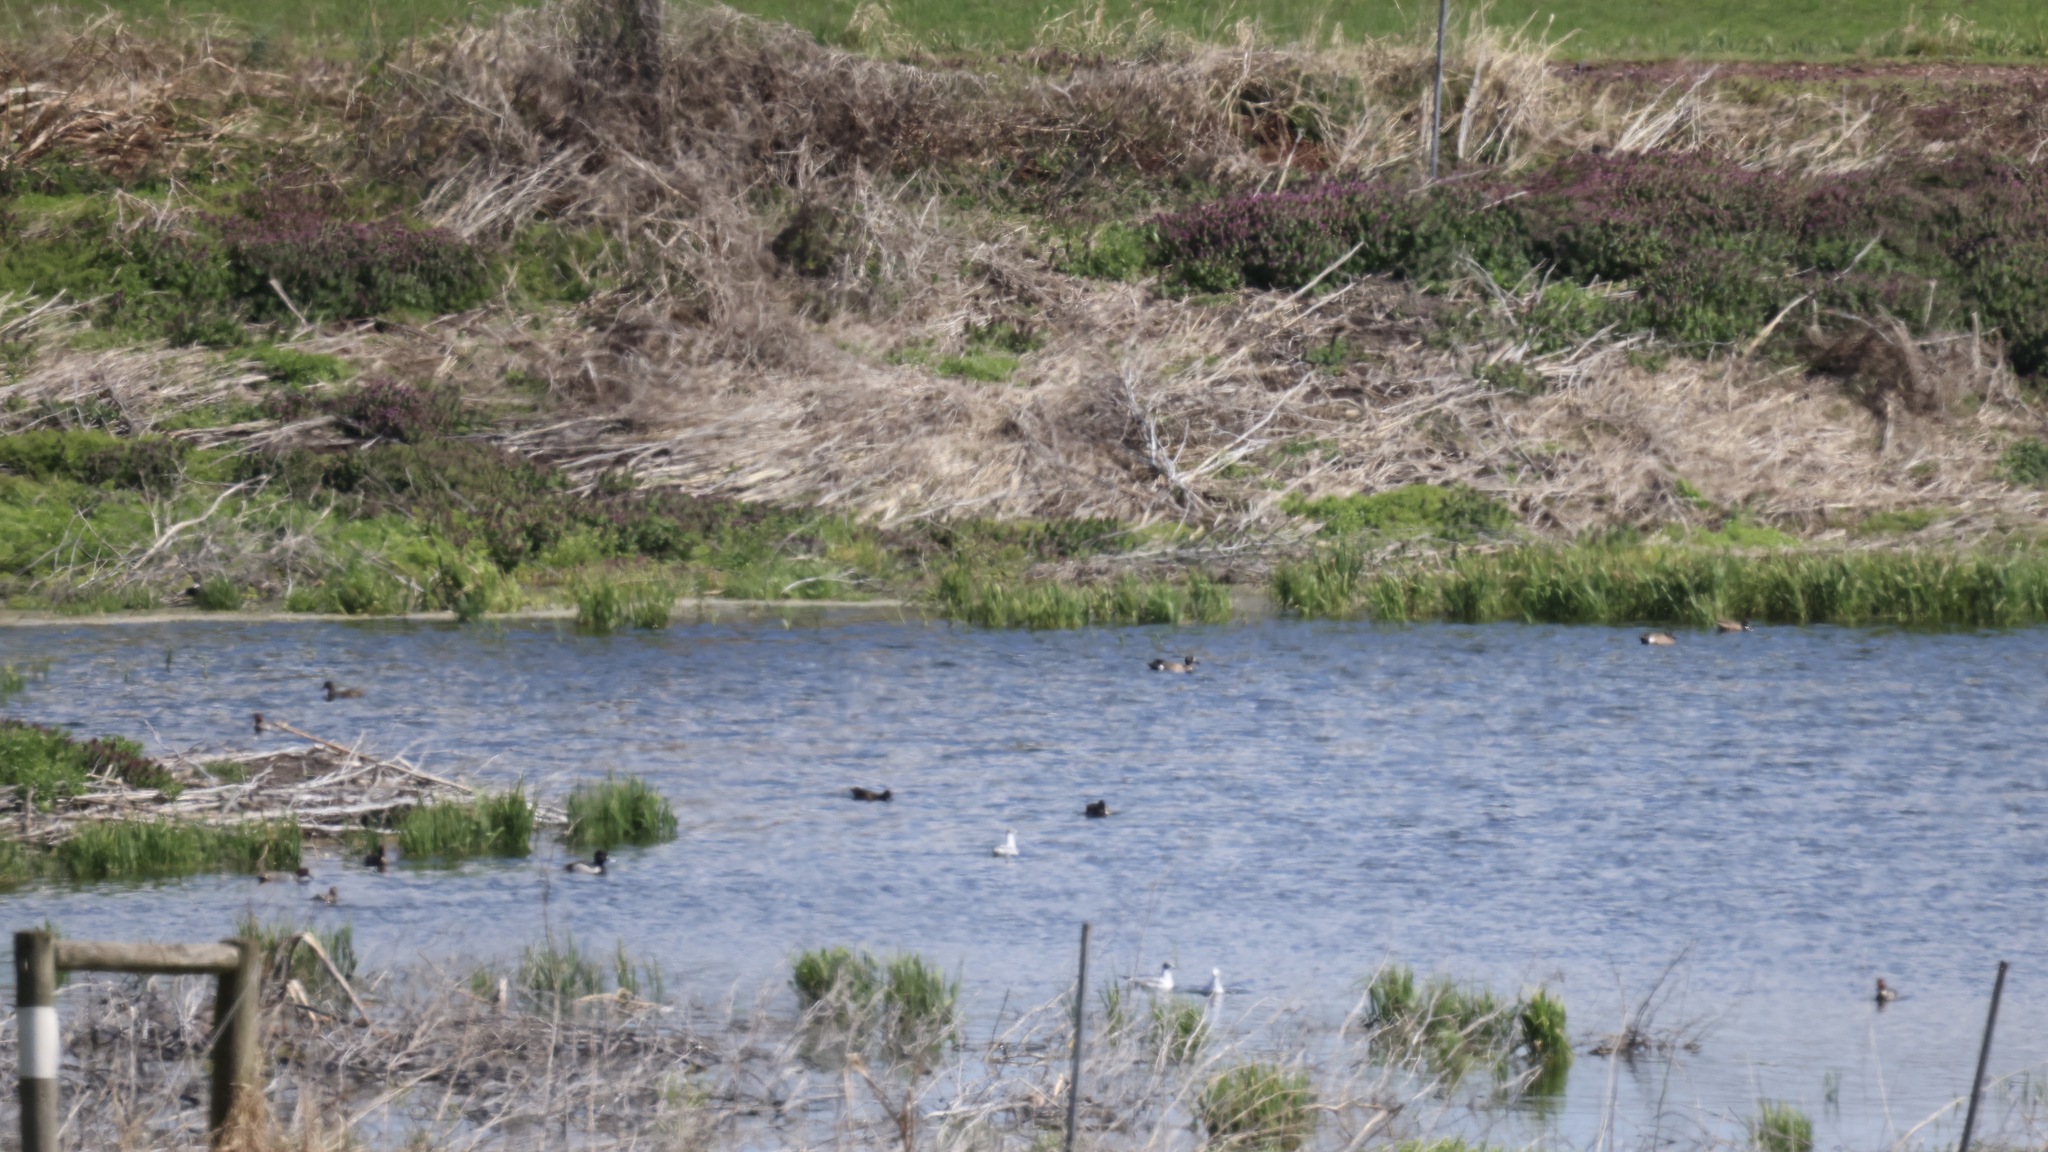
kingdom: Animalia
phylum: Chordata
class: Aves
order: Anseriformes
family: Anatidae
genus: Spatula
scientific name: Spatula discors
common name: Blue-winged teal
